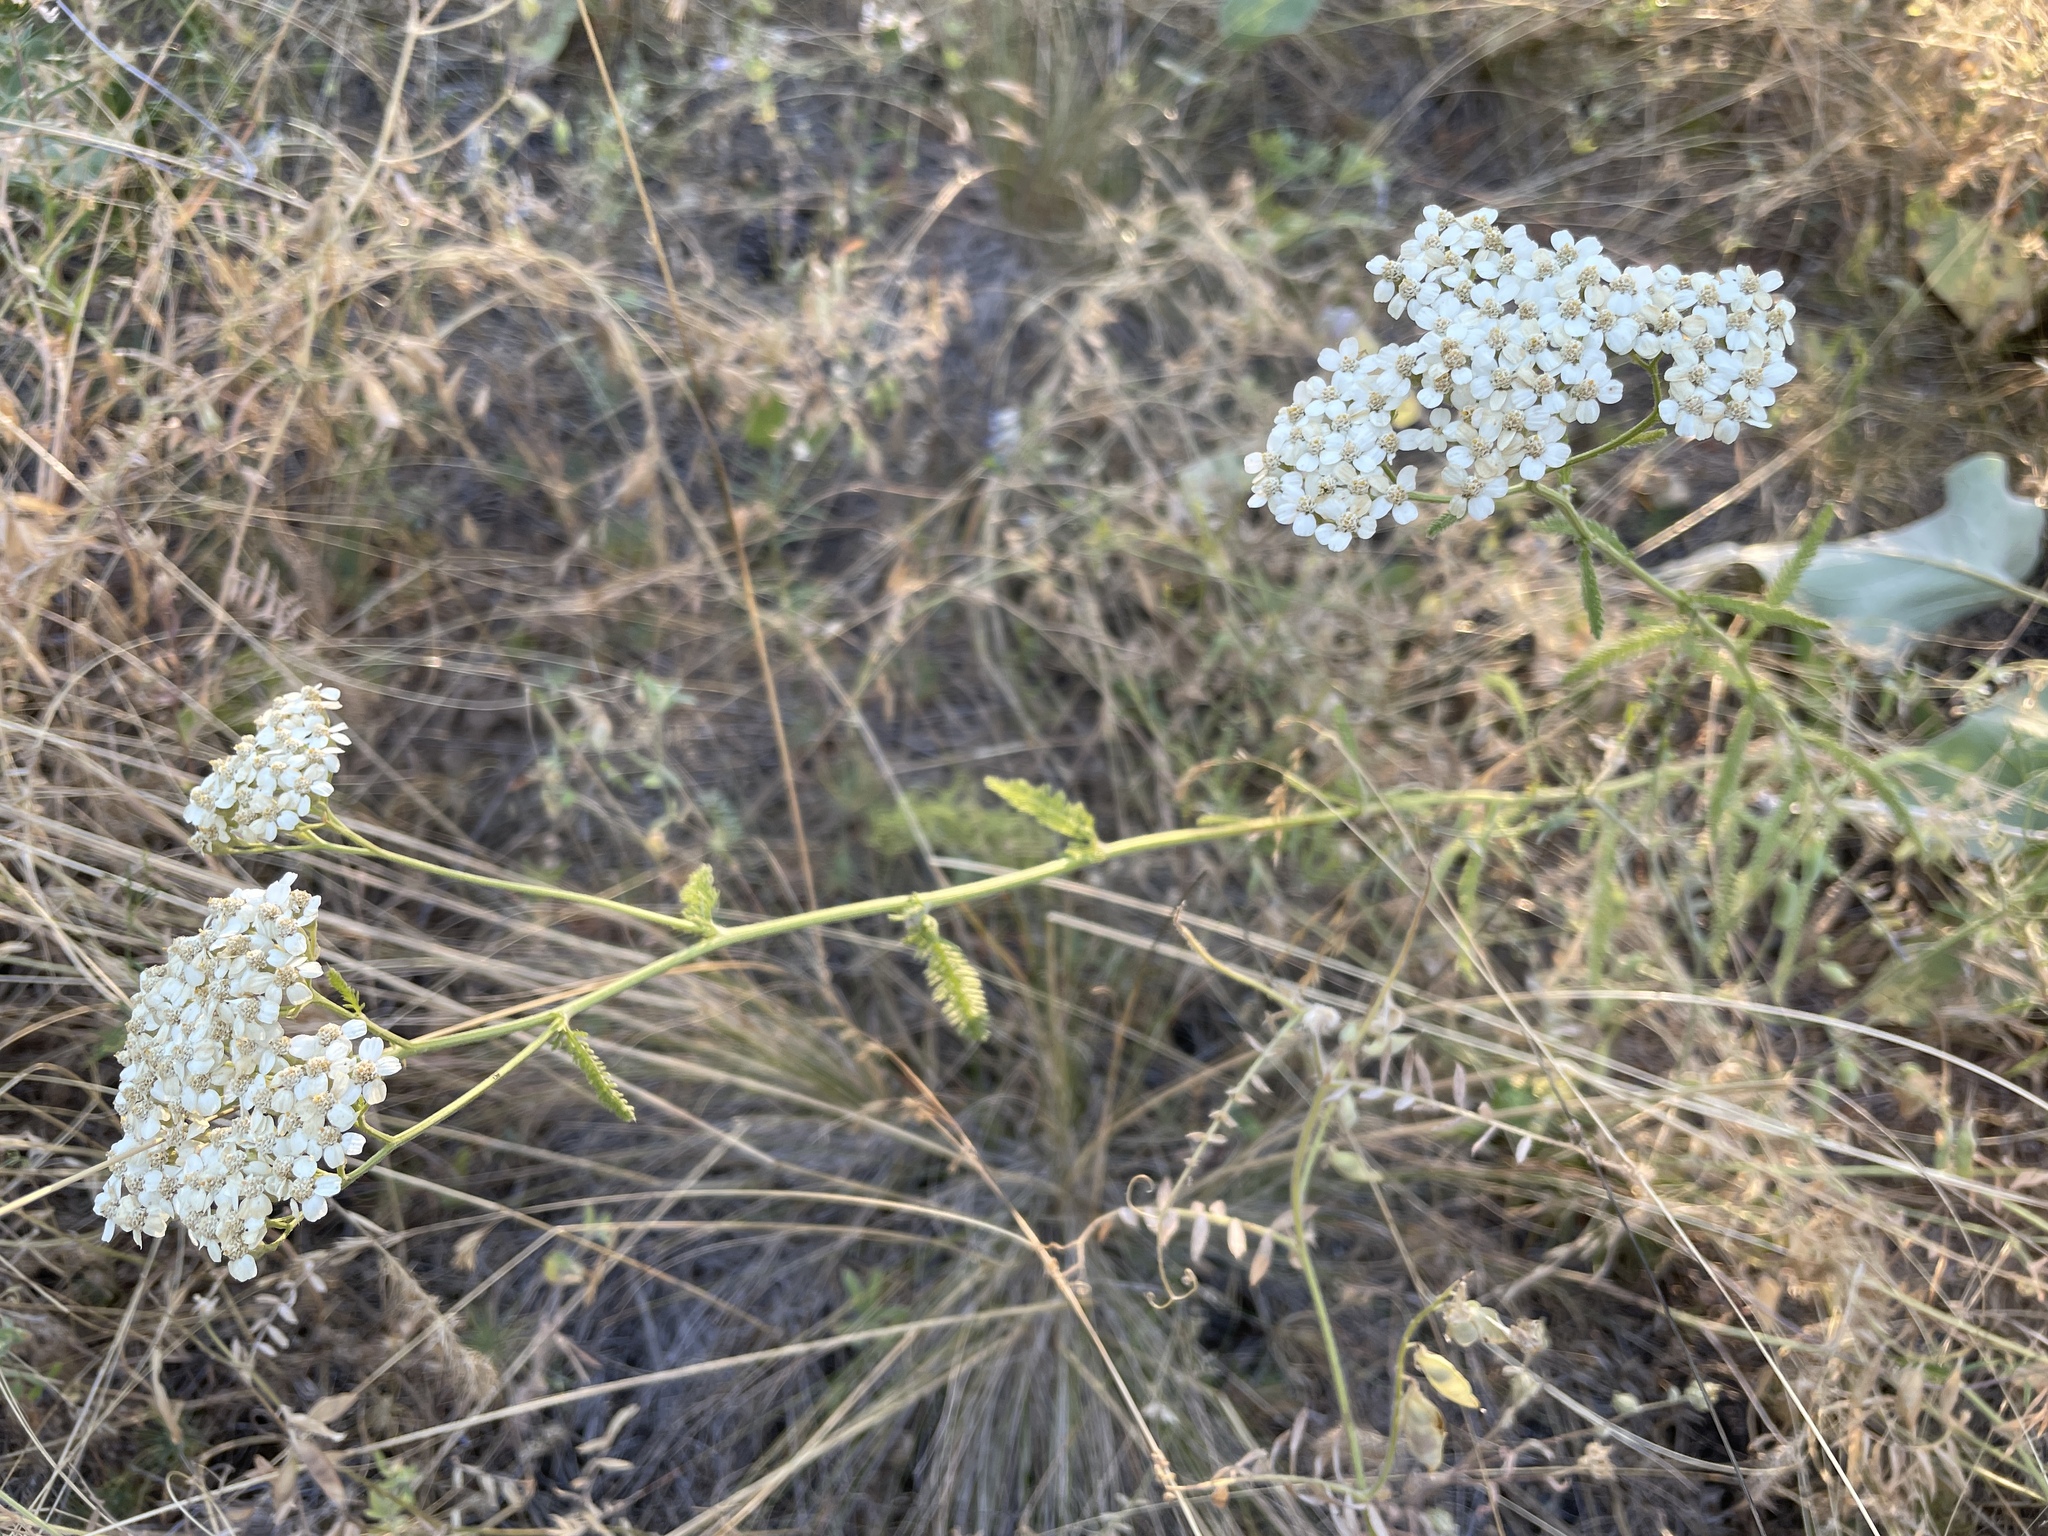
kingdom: Plantae
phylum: Tracheophyta
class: Magnoliopsida
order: Asterales
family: Asteraceae
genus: Achillea
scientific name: Achillea millefolium
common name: Yarrow
